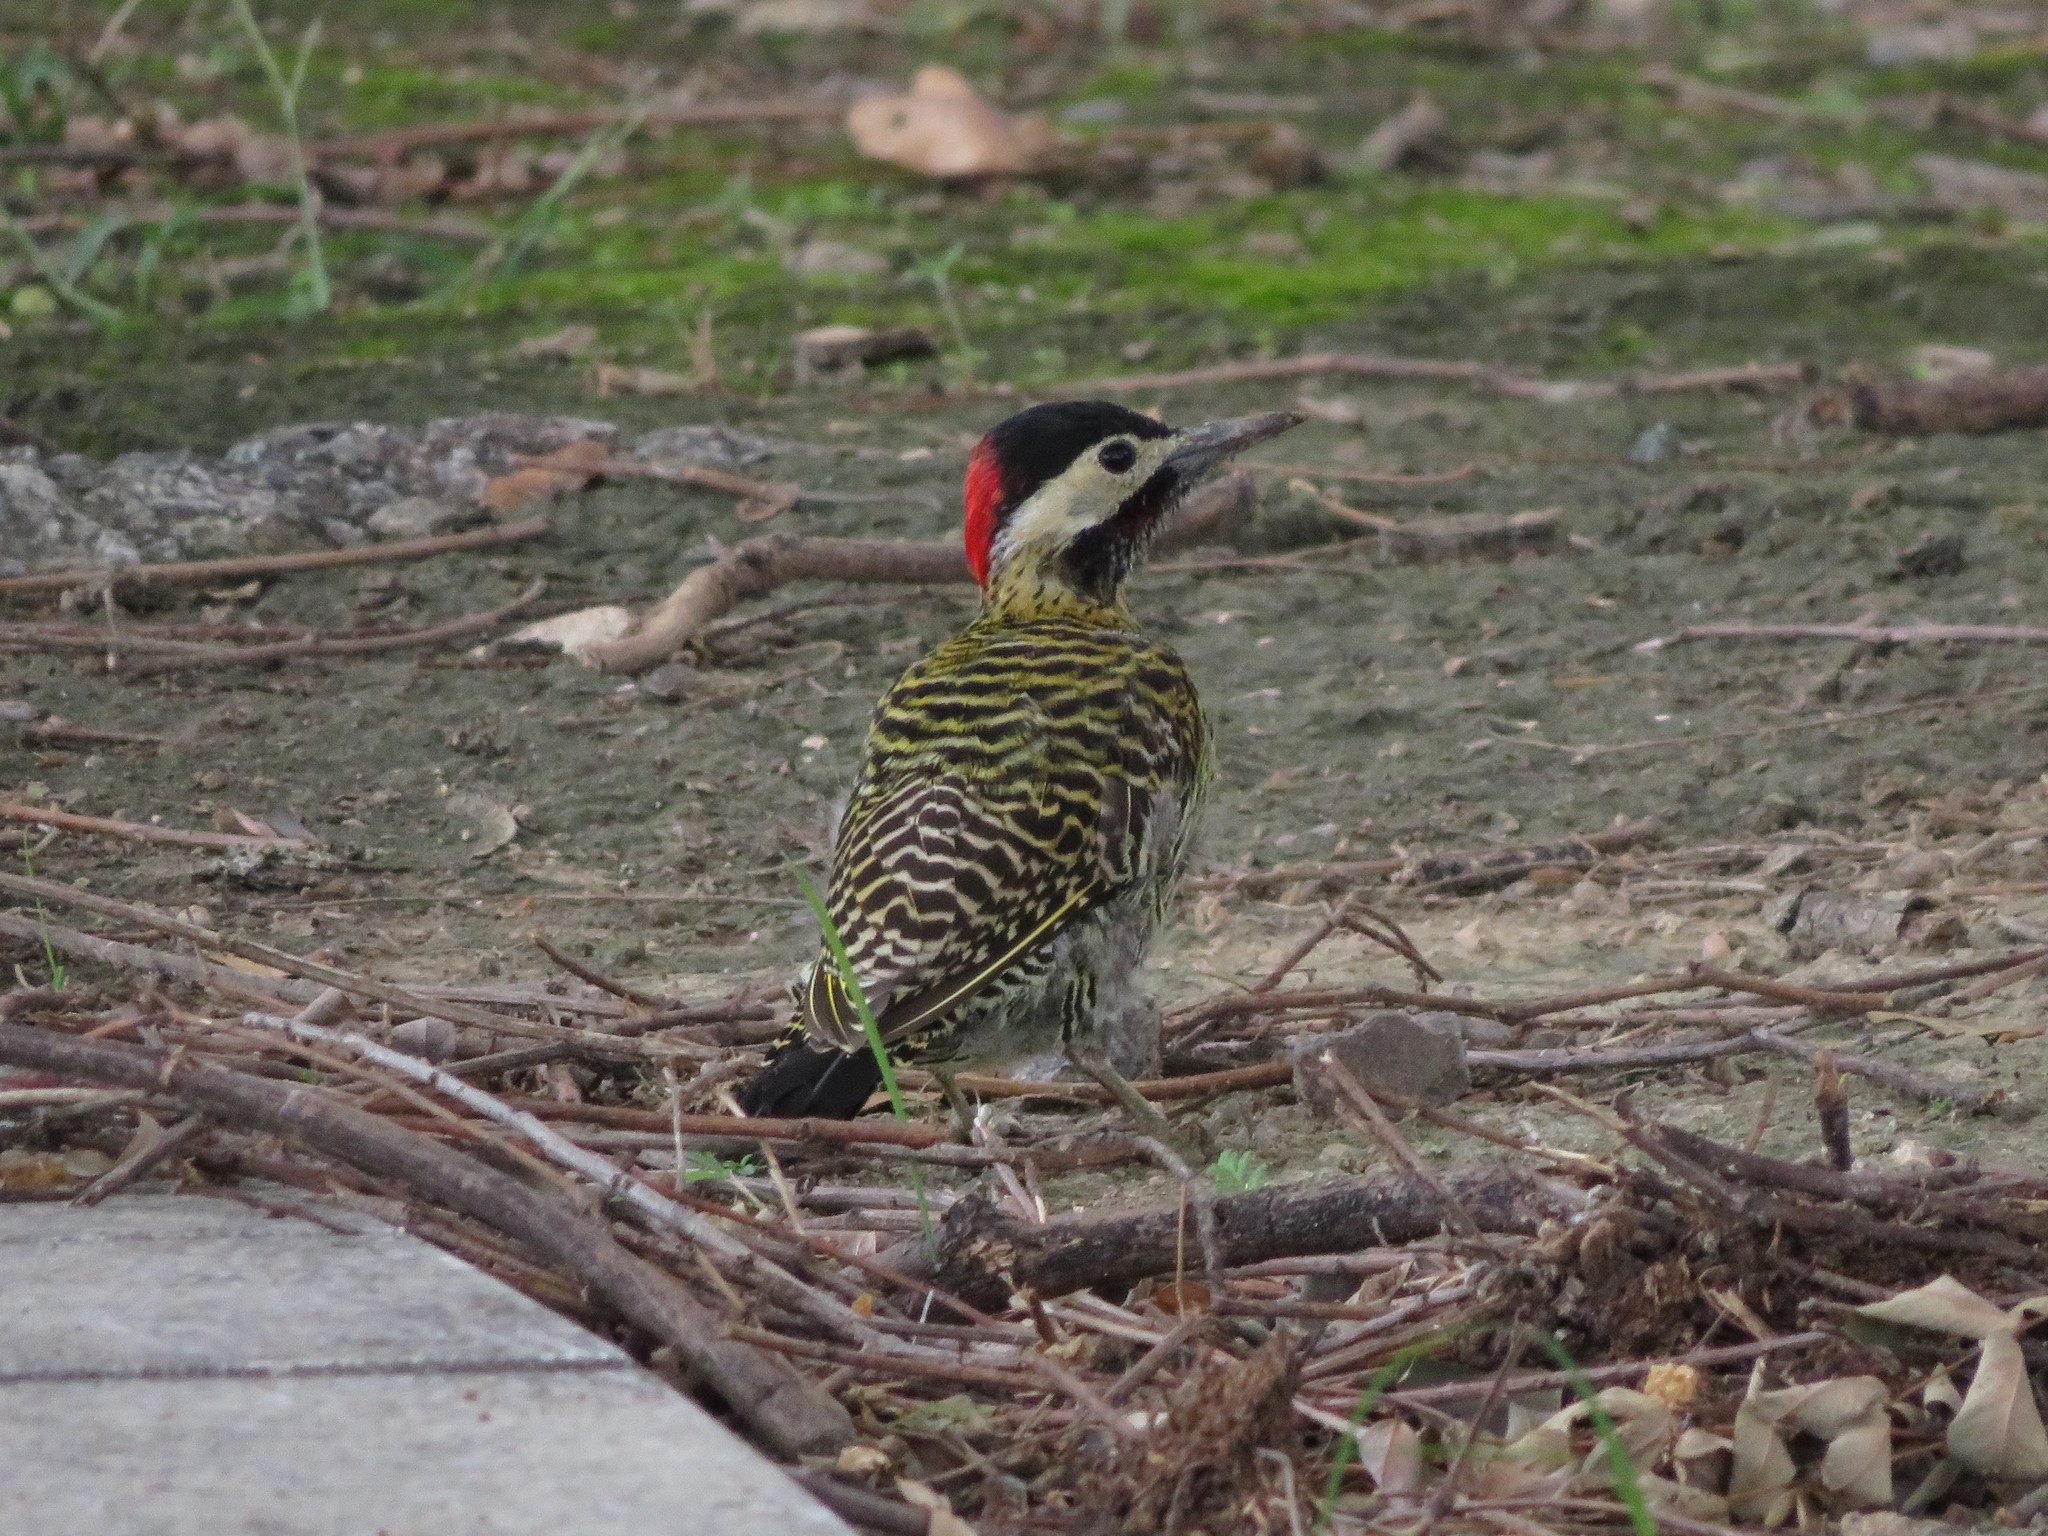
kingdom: Animalia
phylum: Chordata
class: Aves
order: Piciformes
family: Picidae
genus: Colaptes
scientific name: Colaptes melanochloros
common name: Green-barred woodpecker
